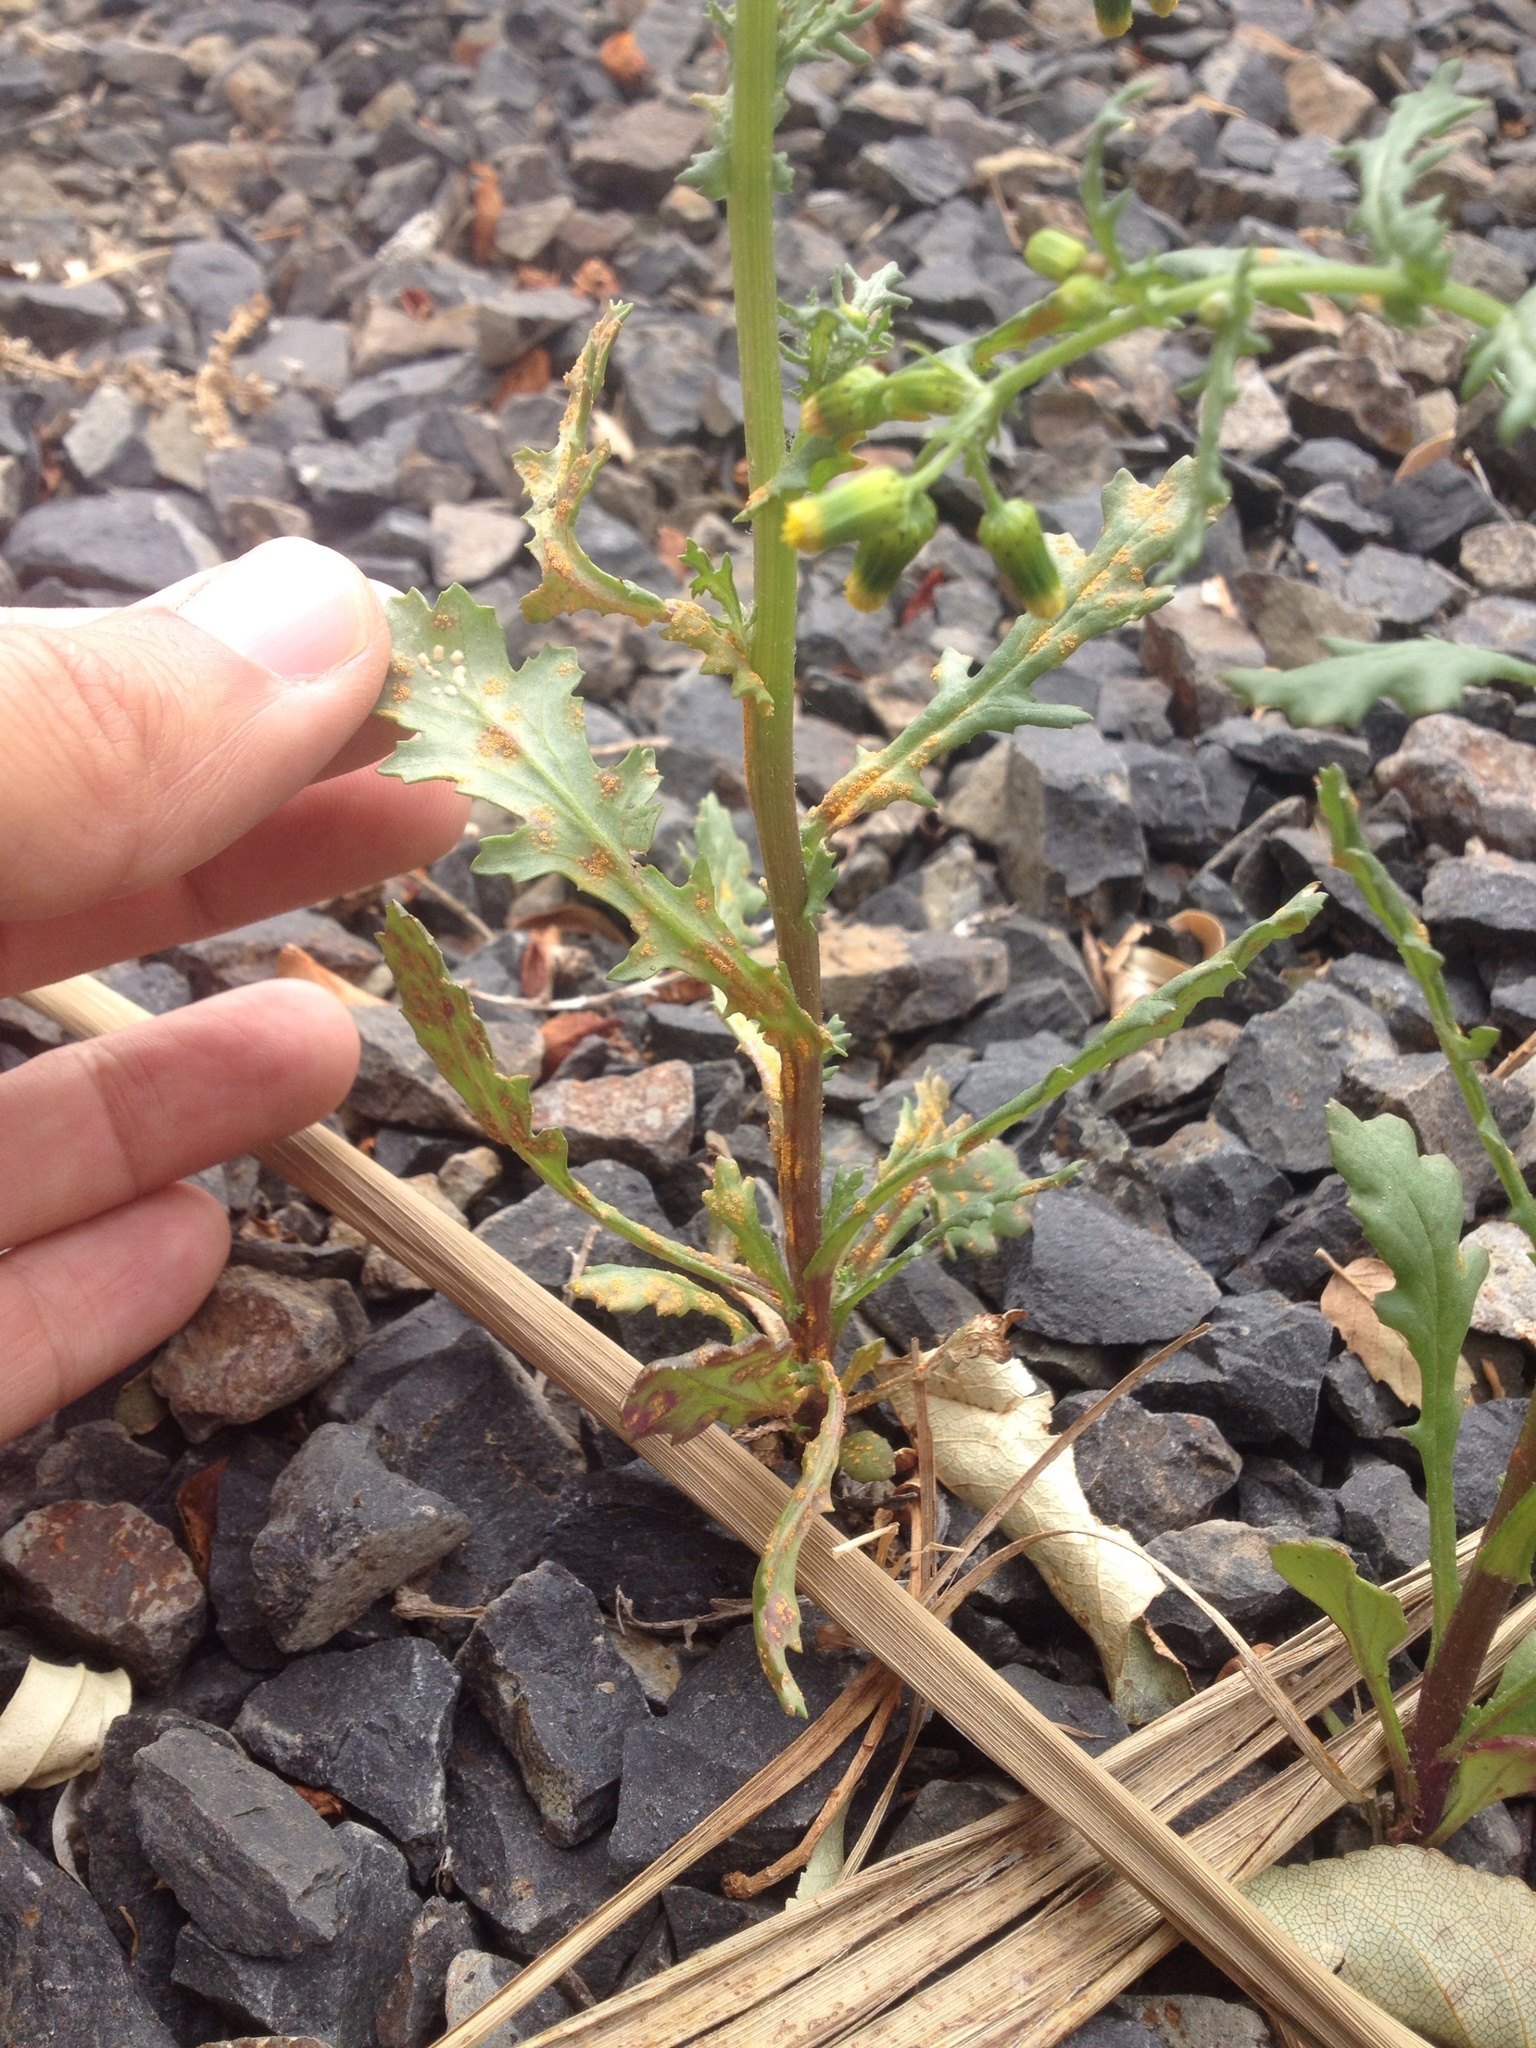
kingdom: Fungi
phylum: Basidiomycota
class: Pucciniomycetes
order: Pucciniales
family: Pucciniaceae
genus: Puccinia
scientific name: Puccinia lagenophorae
